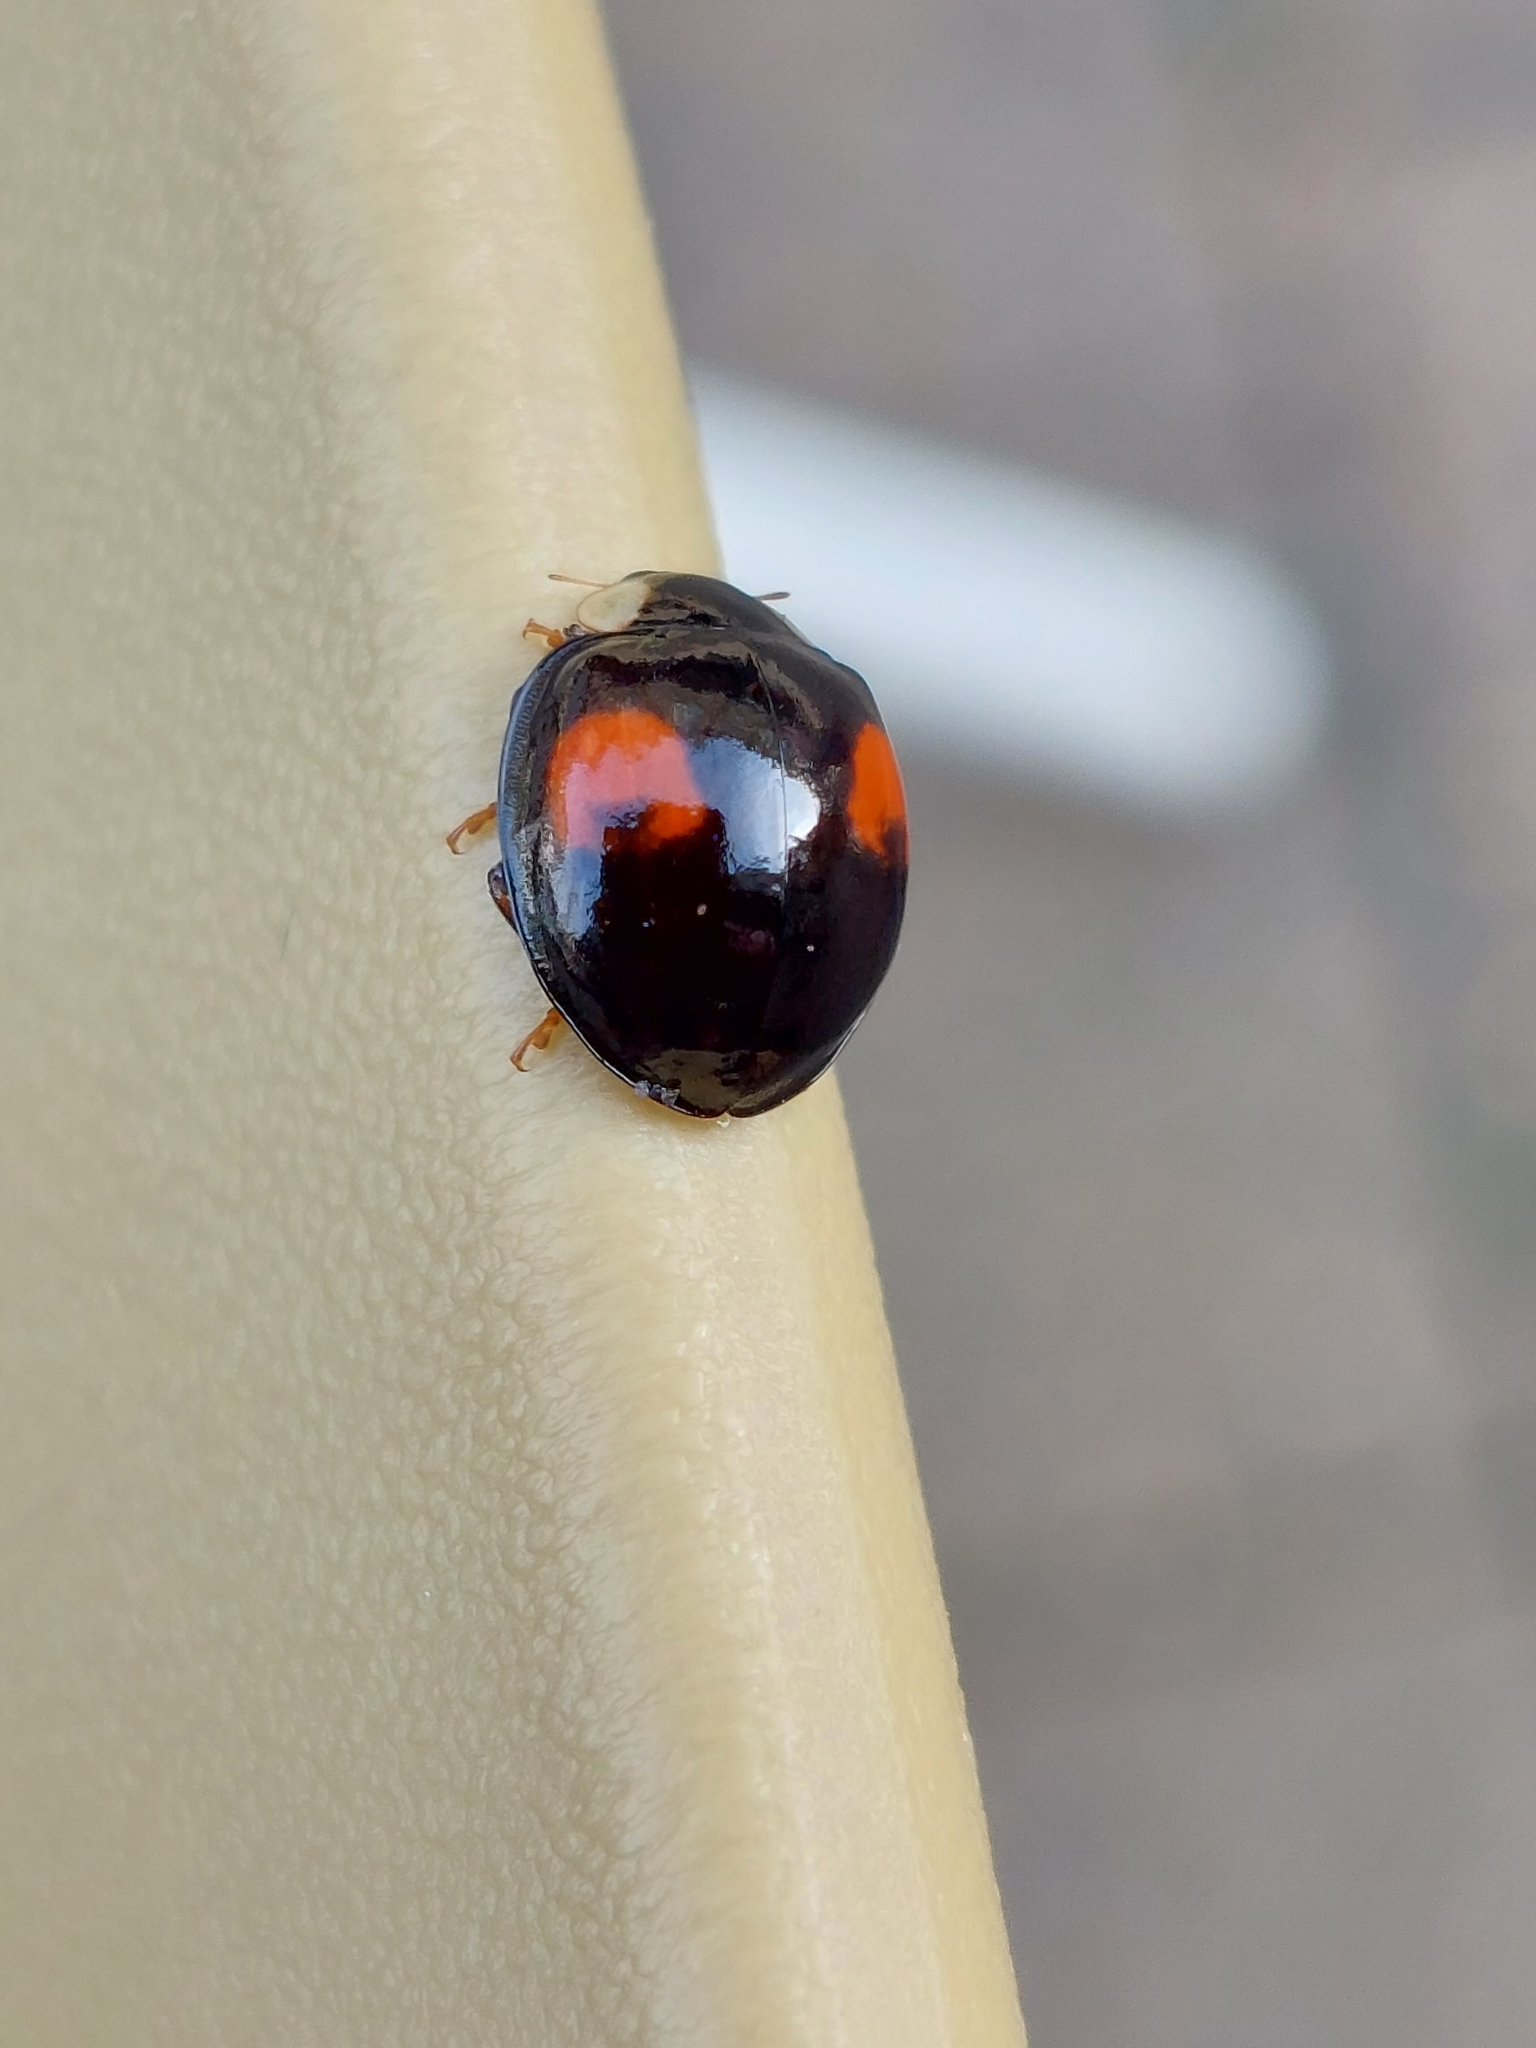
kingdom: Animalia
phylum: Arthropoda
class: Insecta
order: Coleoptera
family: Coccinellidae
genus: Harmonia
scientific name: Harmonia axyridis
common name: Harlequin ladybird
